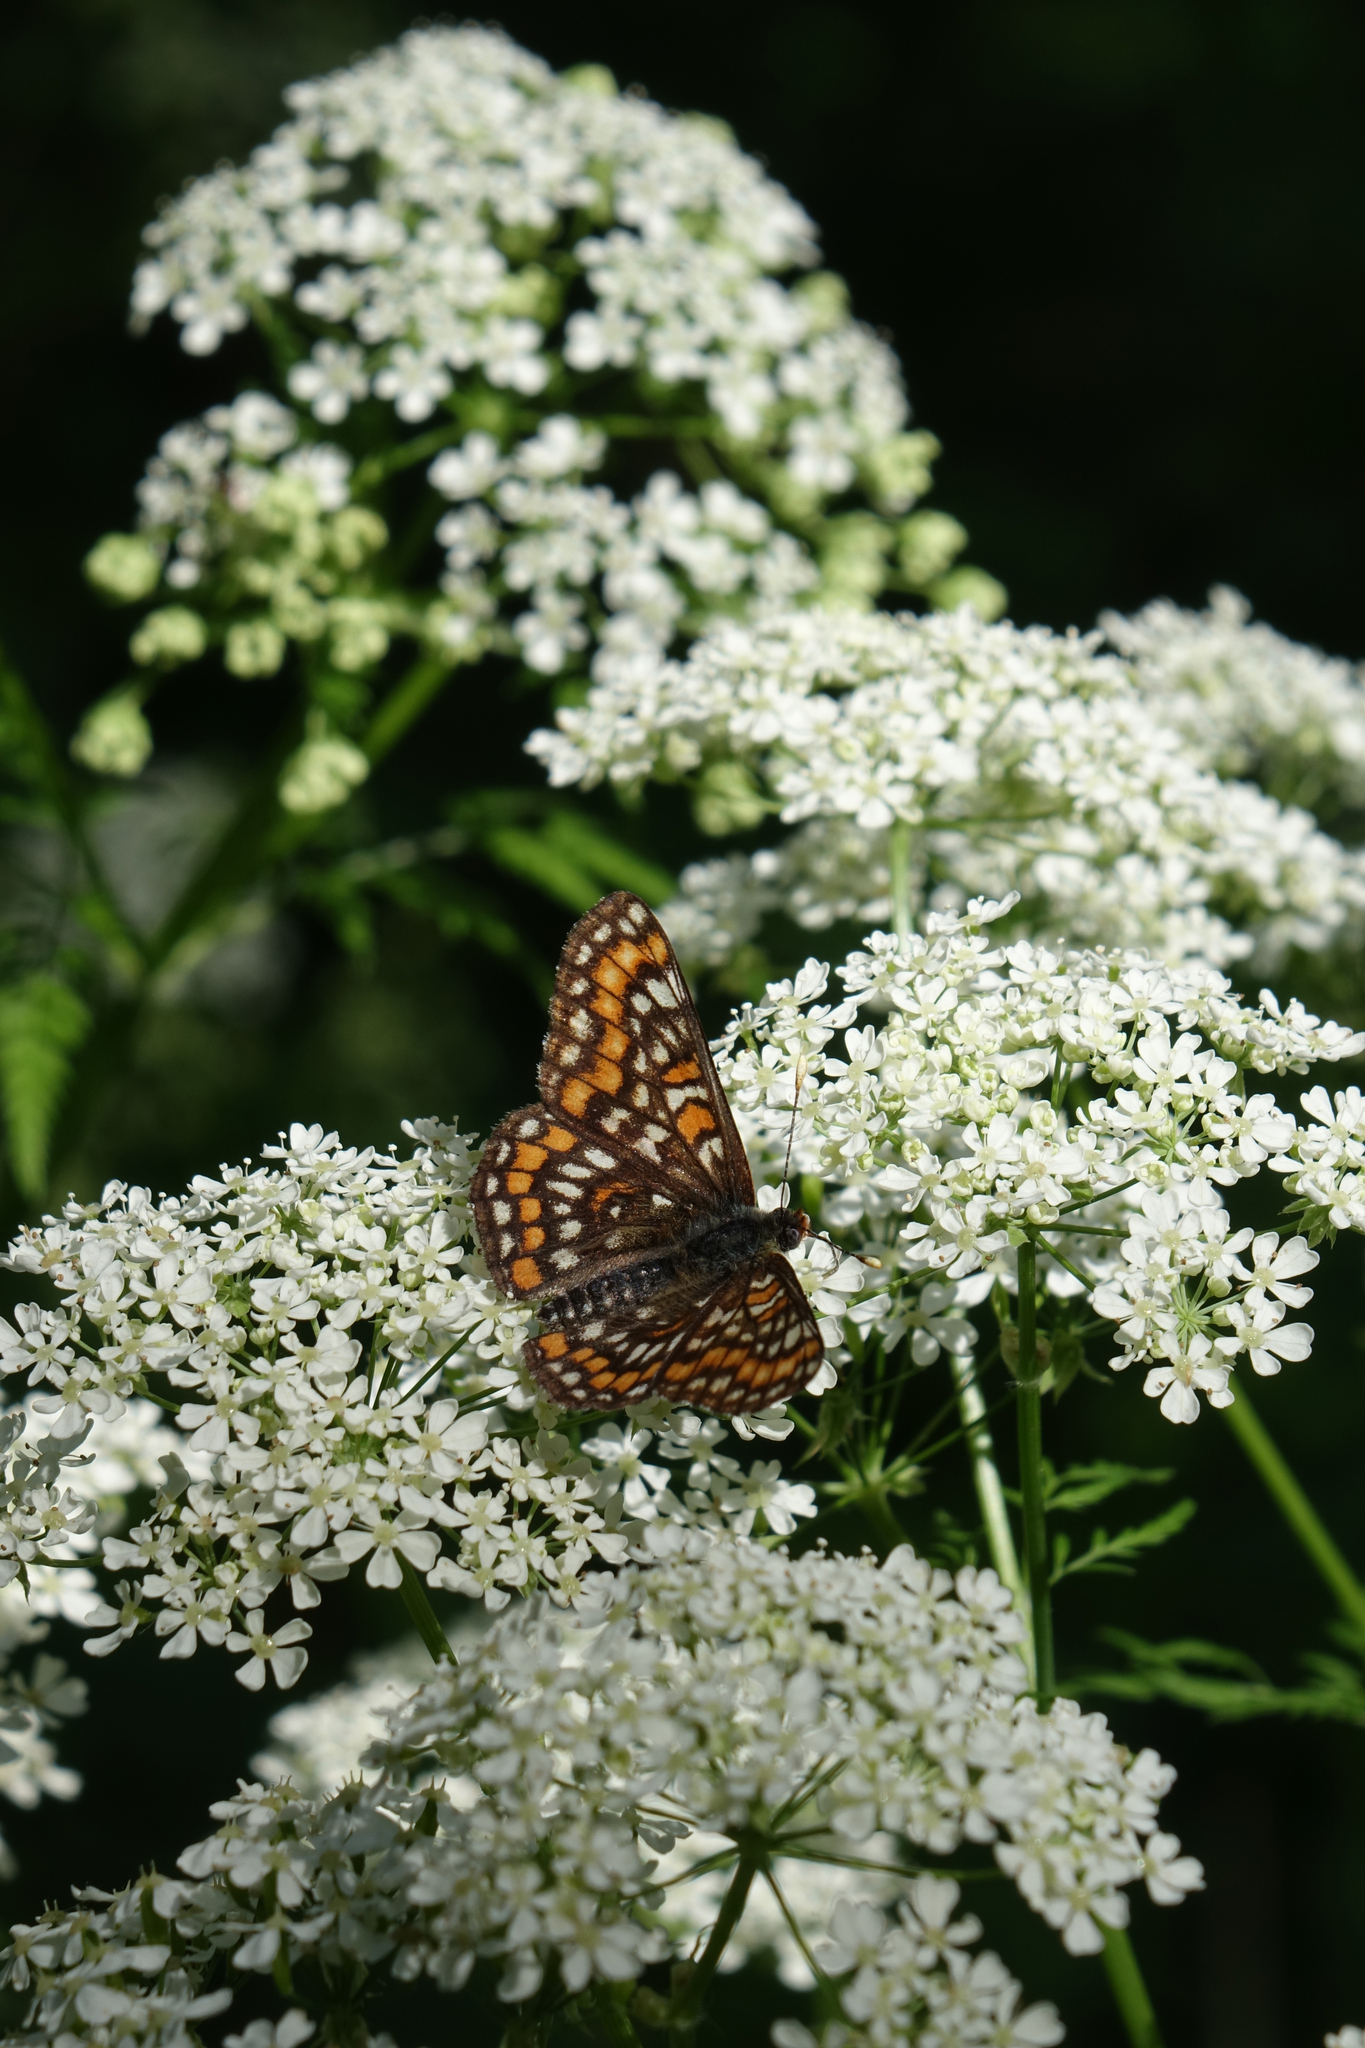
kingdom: Animalia
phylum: Arthropoda
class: Insecta
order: Lepidoptera
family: Nymphalidae
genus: Euphydryas
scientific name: Euphydryas maturna
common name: Scarce fritillary
